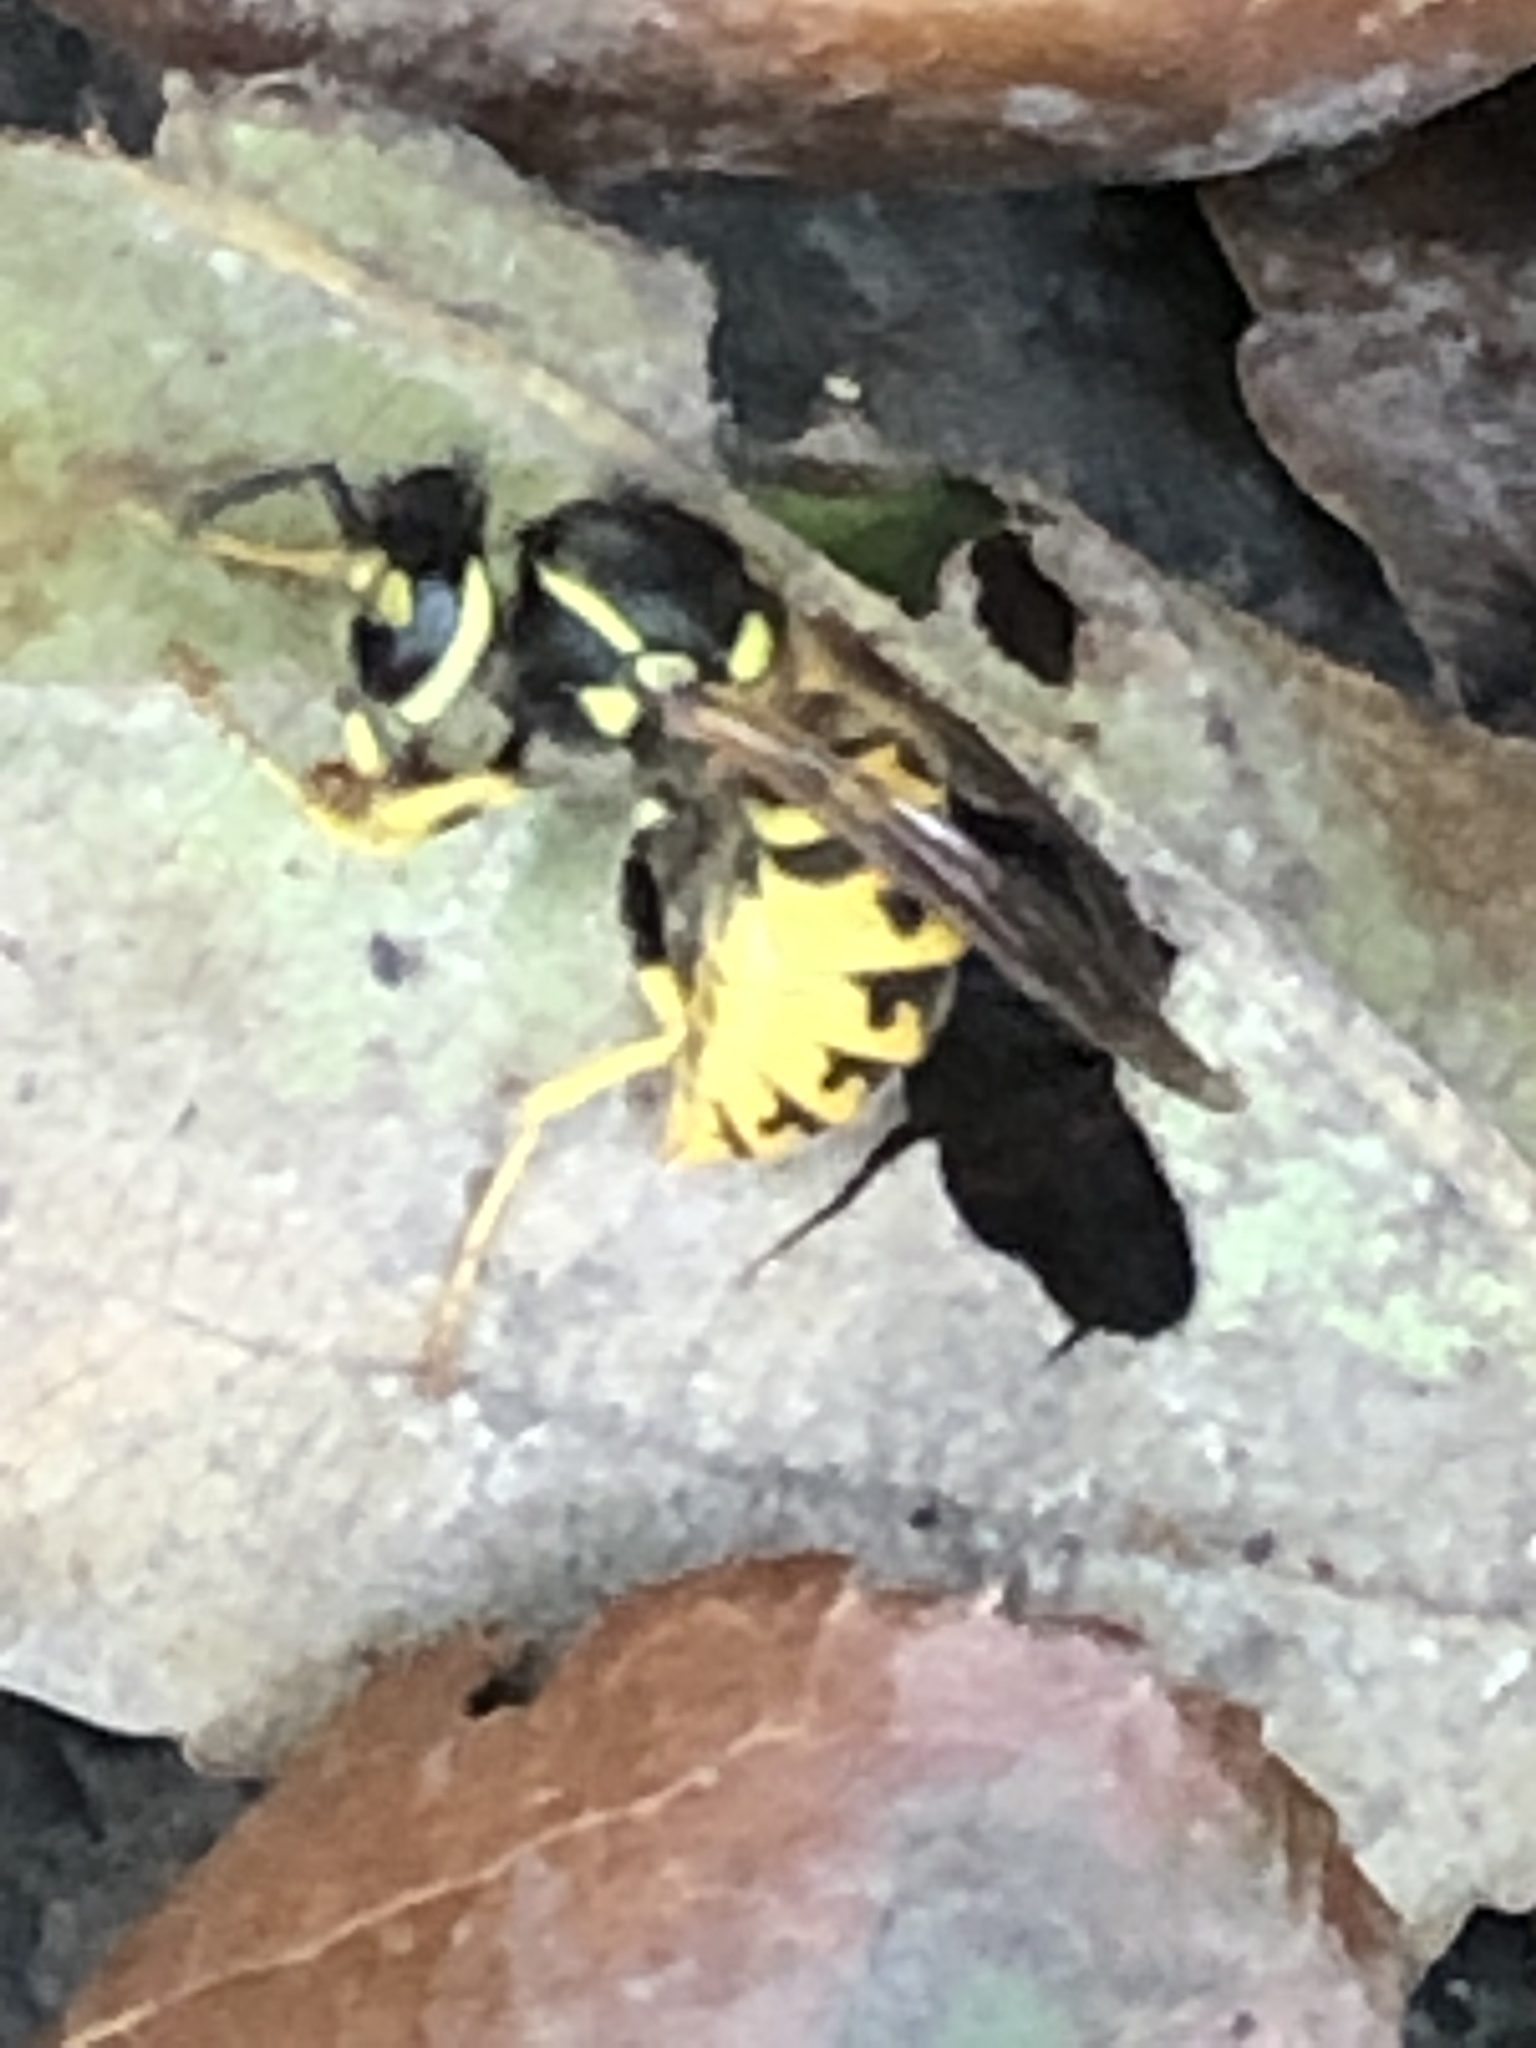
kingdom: Animalia
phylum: Arthropoda
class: Insecta
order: Hymenoptera
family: Vespidae
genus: Vespula
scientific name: Vespula germanica
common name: German wasp
